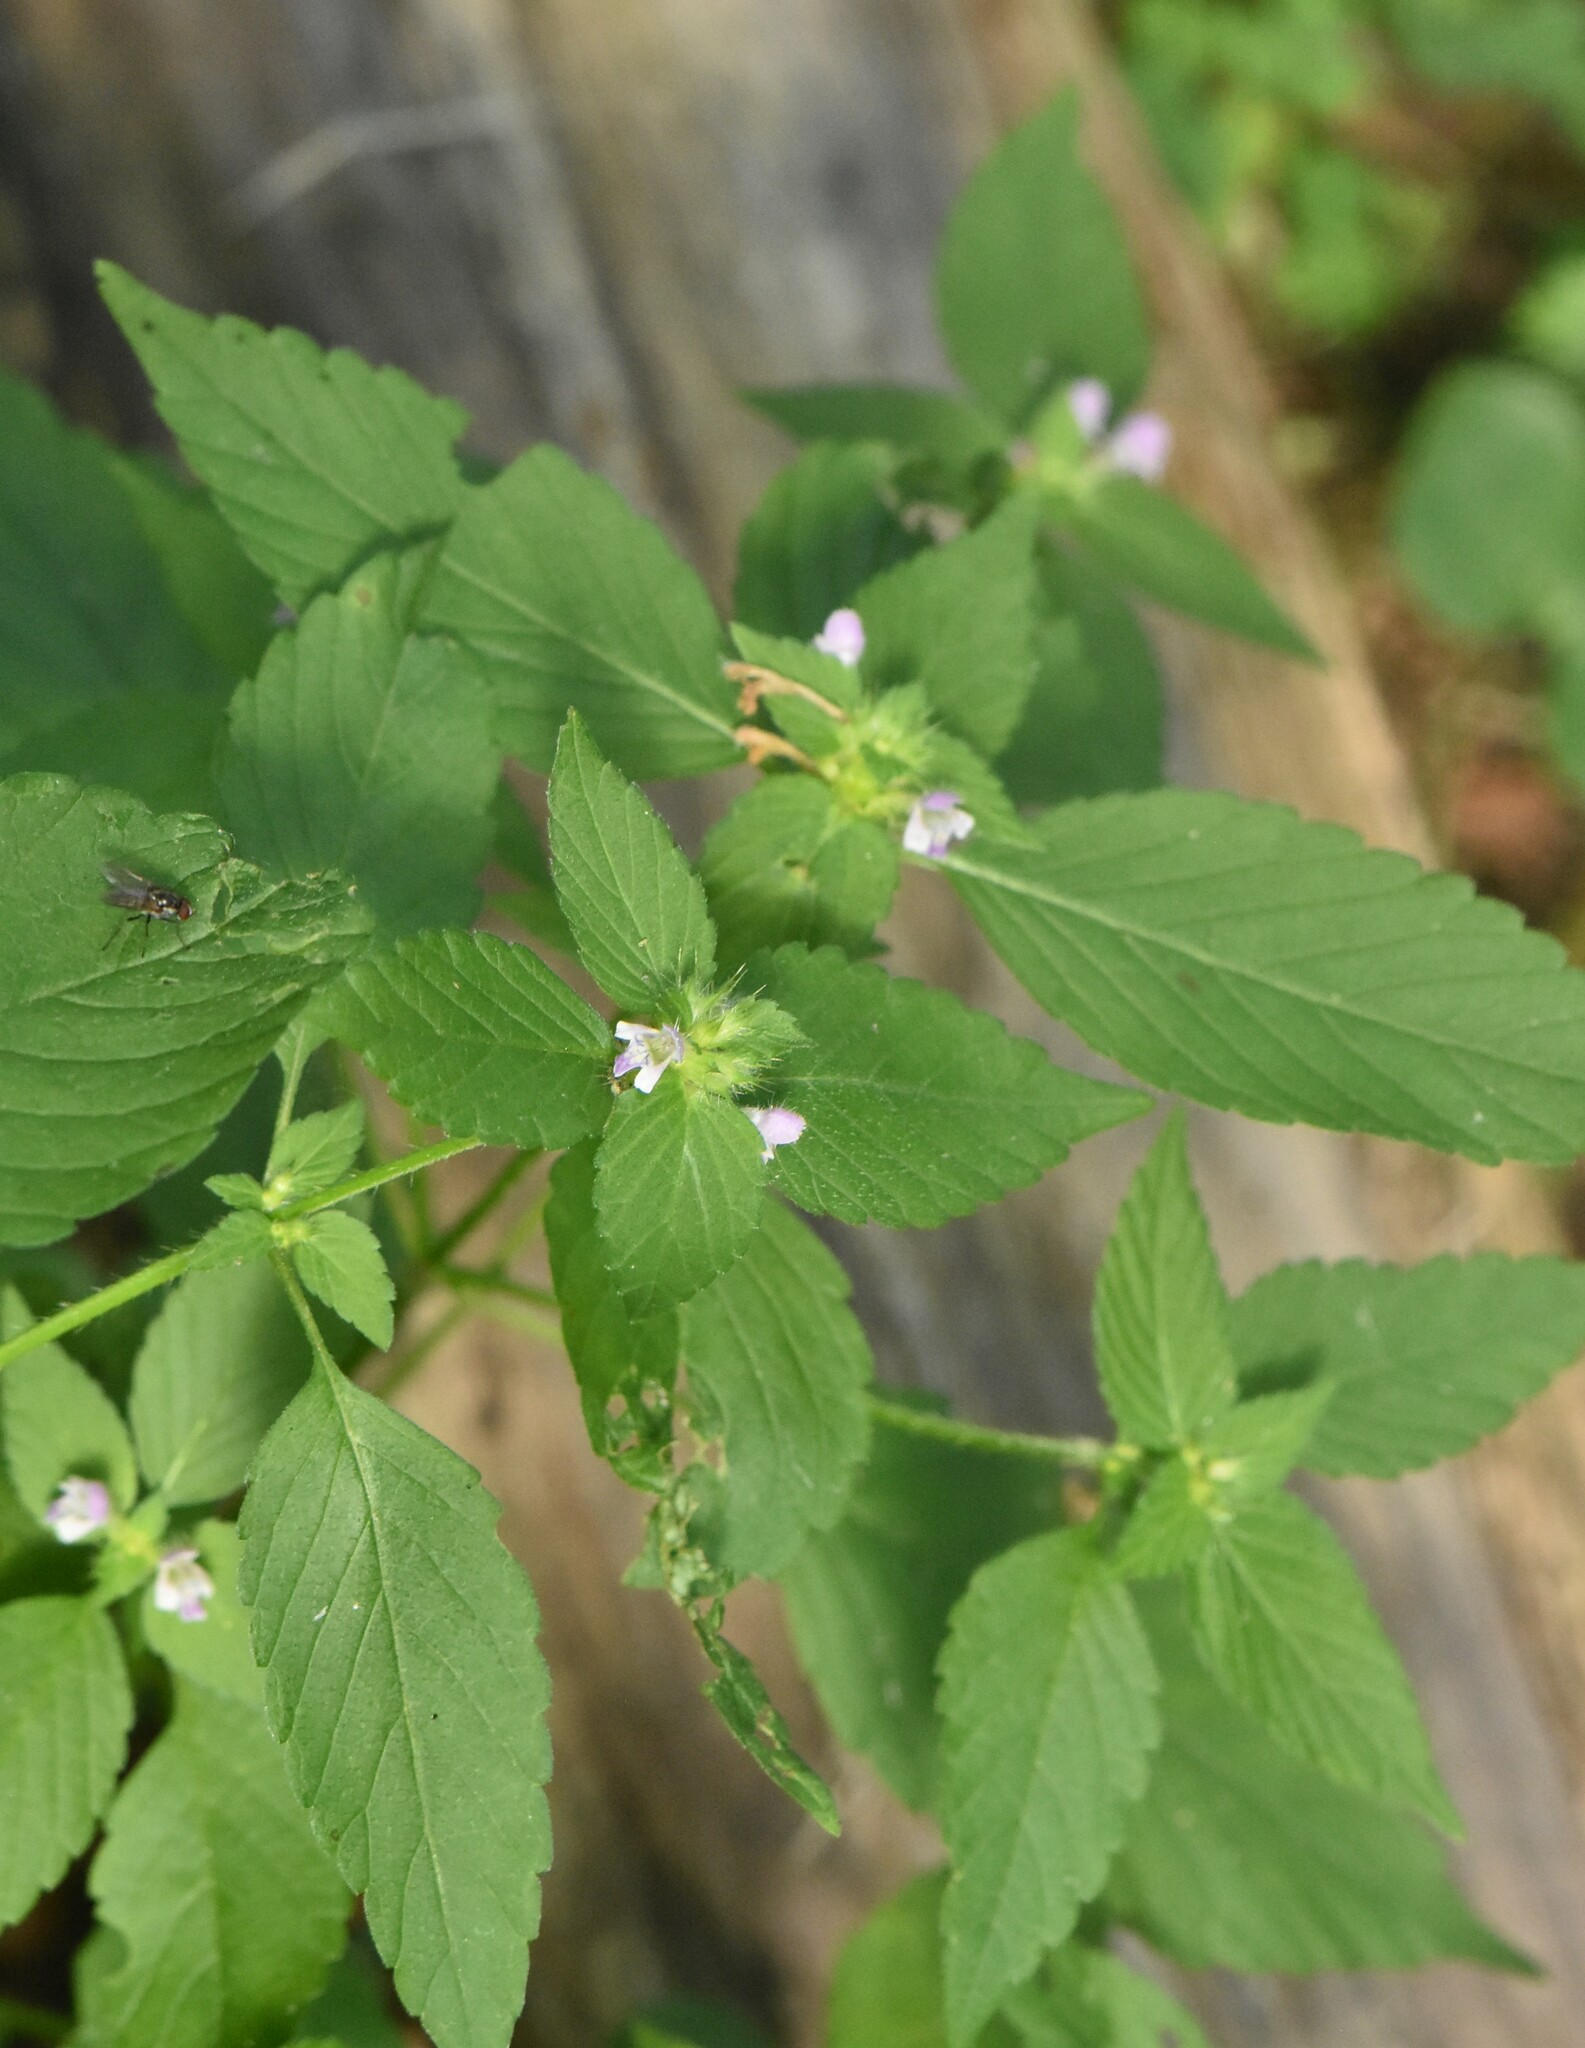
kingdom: Plantae
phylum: Tracheophyta
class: Magnoliopsida
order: Lamiales
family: Lamiaceae
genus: Galeopsis
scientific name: Galeopsis bifida
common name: Bifid hemp-nettle
